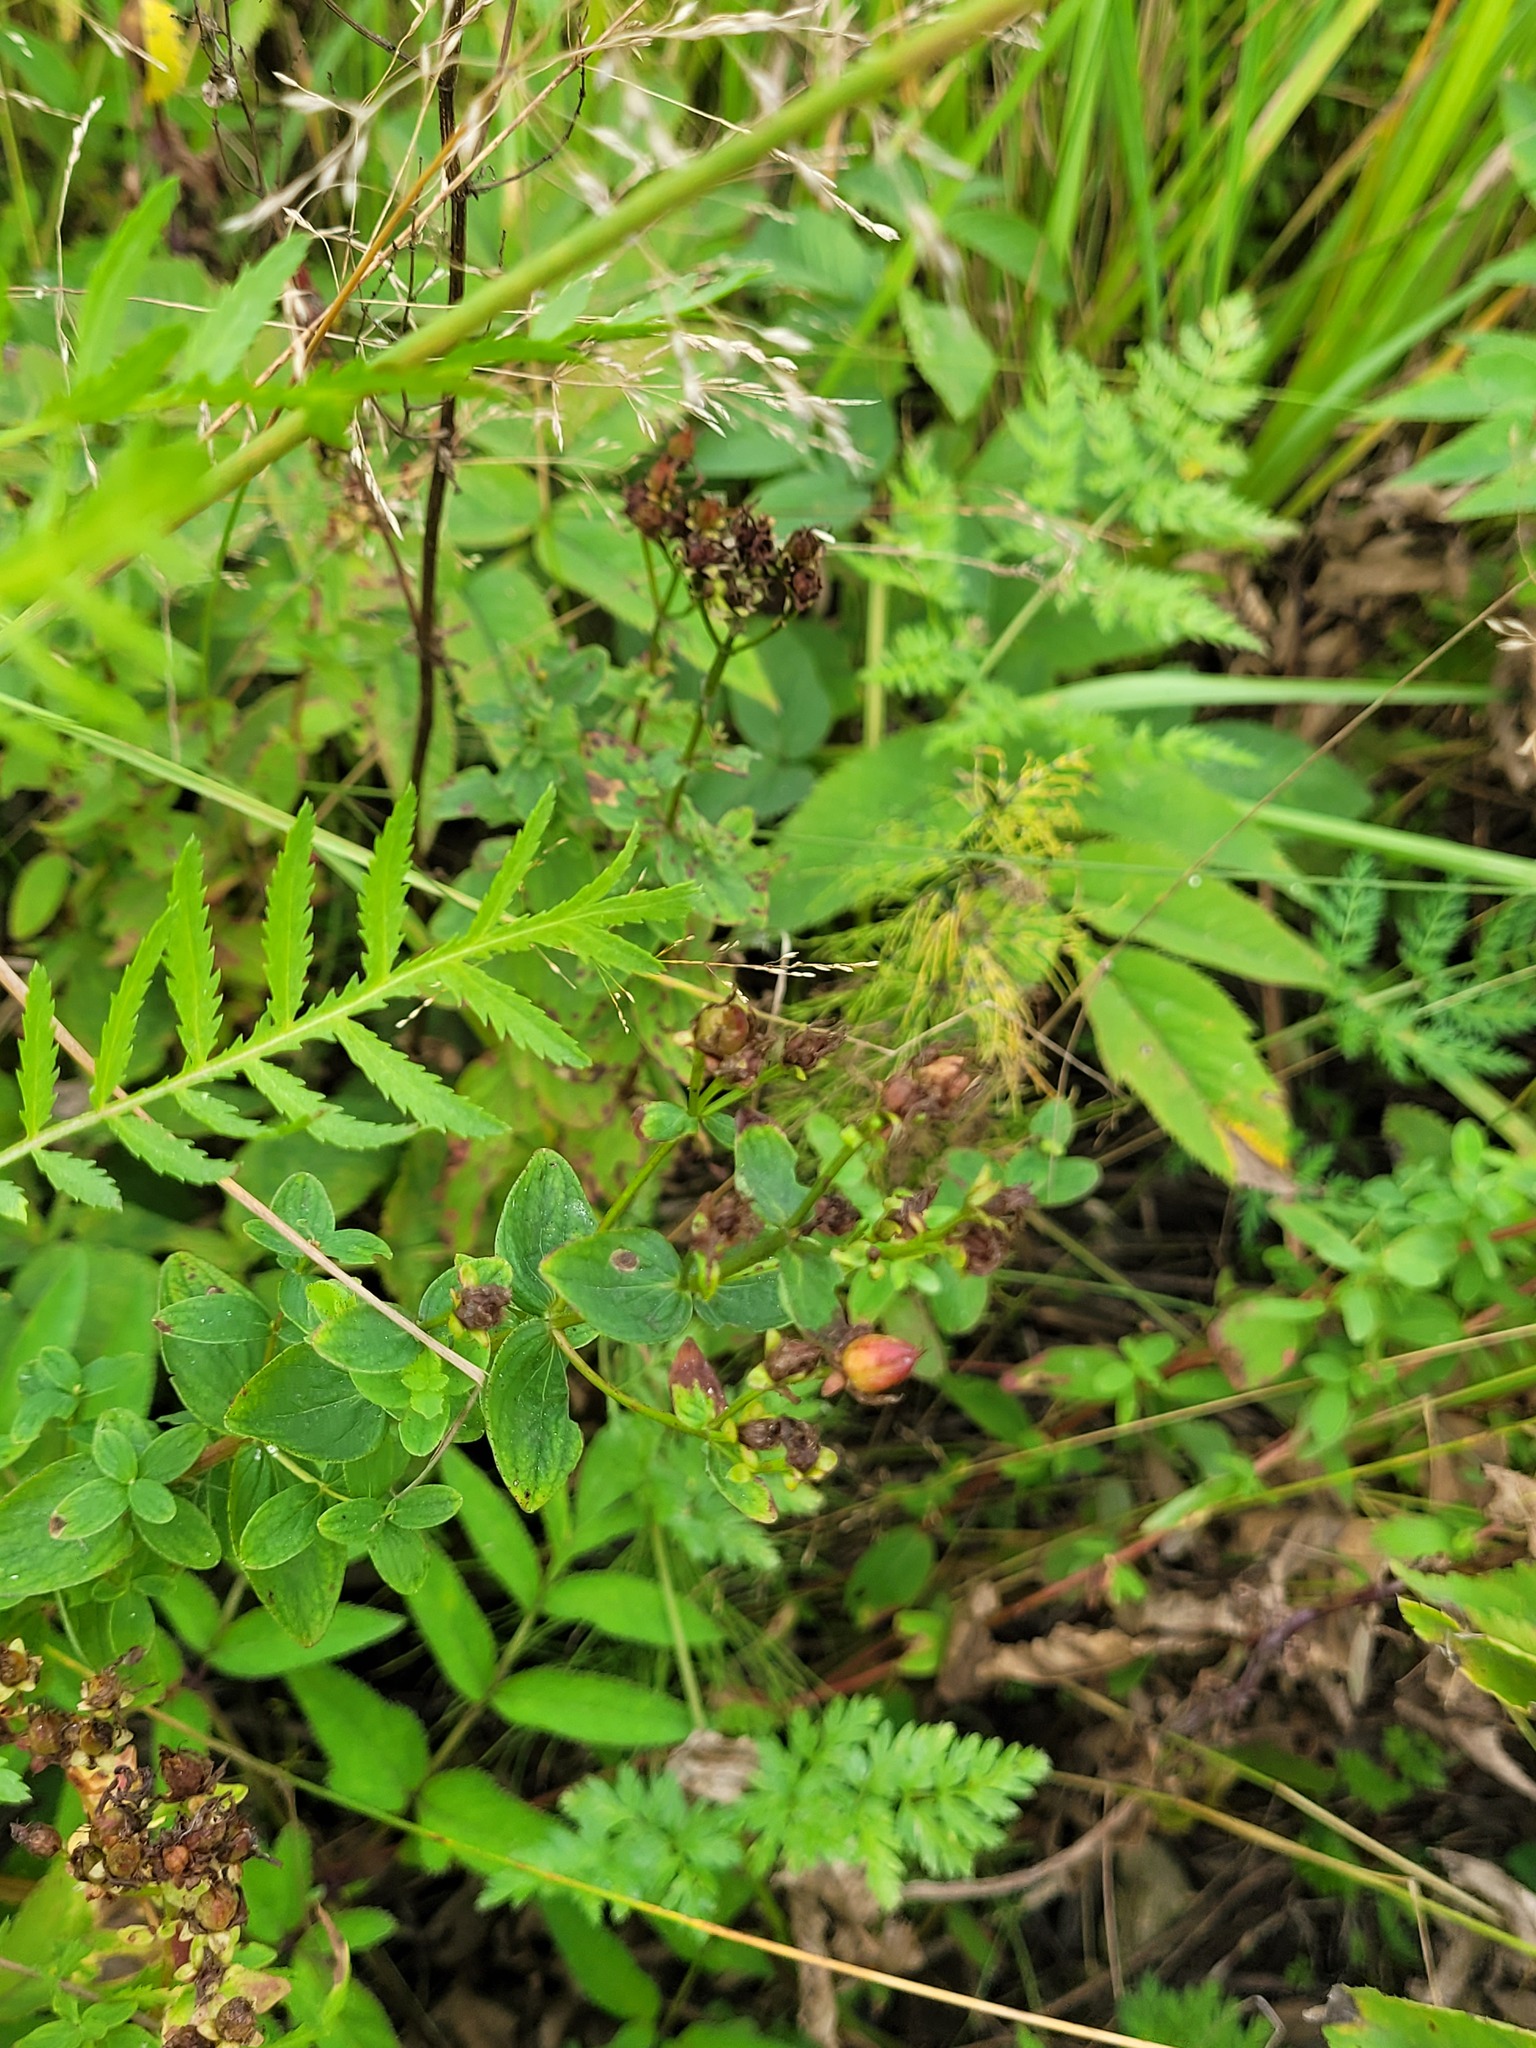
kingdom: Plantae
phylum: Tracheophyta
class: Magnoliopsida
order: Malpighiales
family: Hypericaceae
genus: Hypericum
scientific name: Hypericum maculatum
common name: Imperforate st. john's-wort
